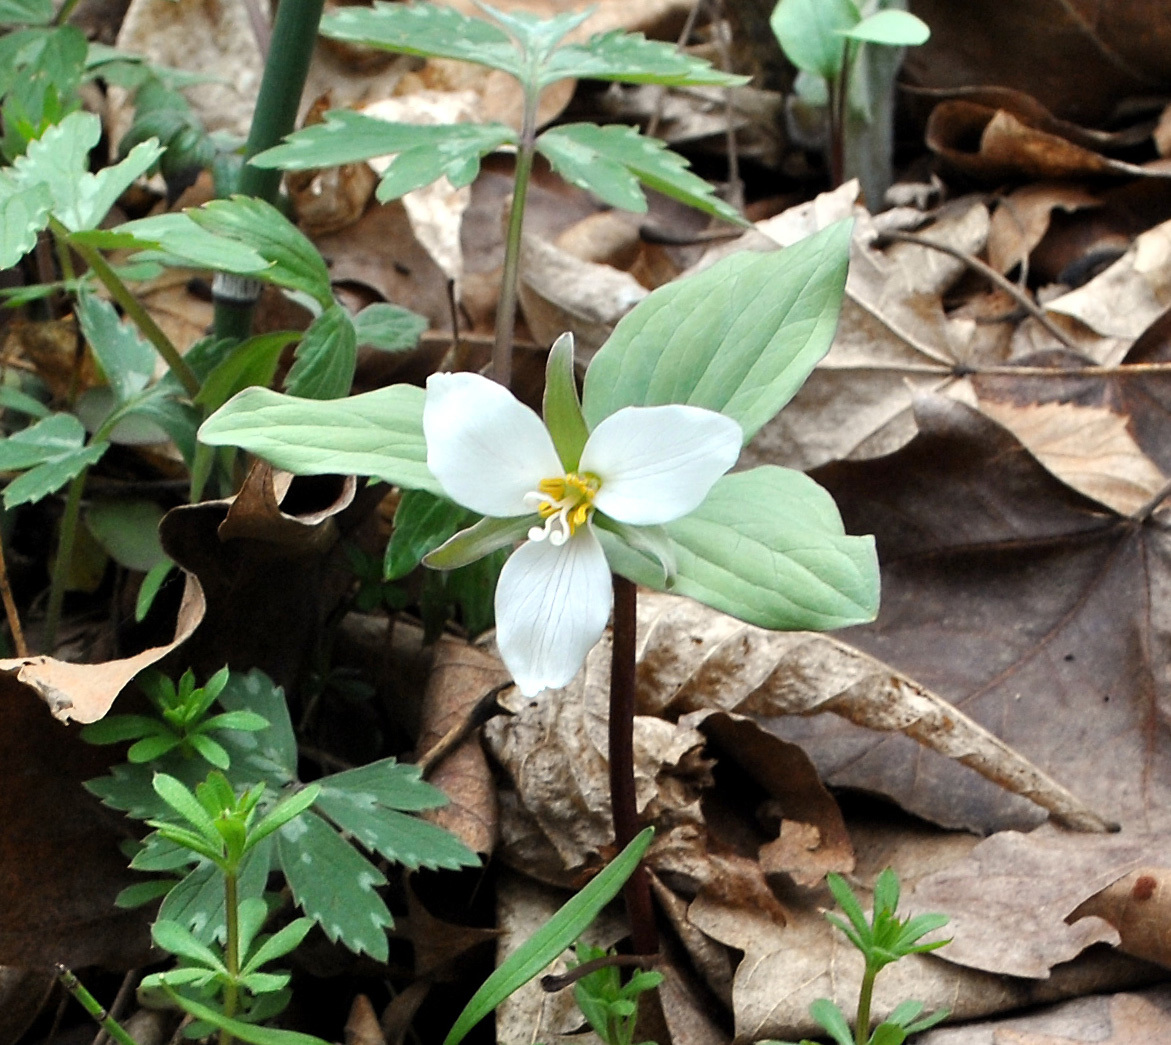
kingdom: Plantae
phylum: Tracheophyta
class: Liliopsida
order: Liliales
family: Melanthiaceae
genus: Trillium
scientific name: Trillium nivale
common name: Dwarf white trillium
